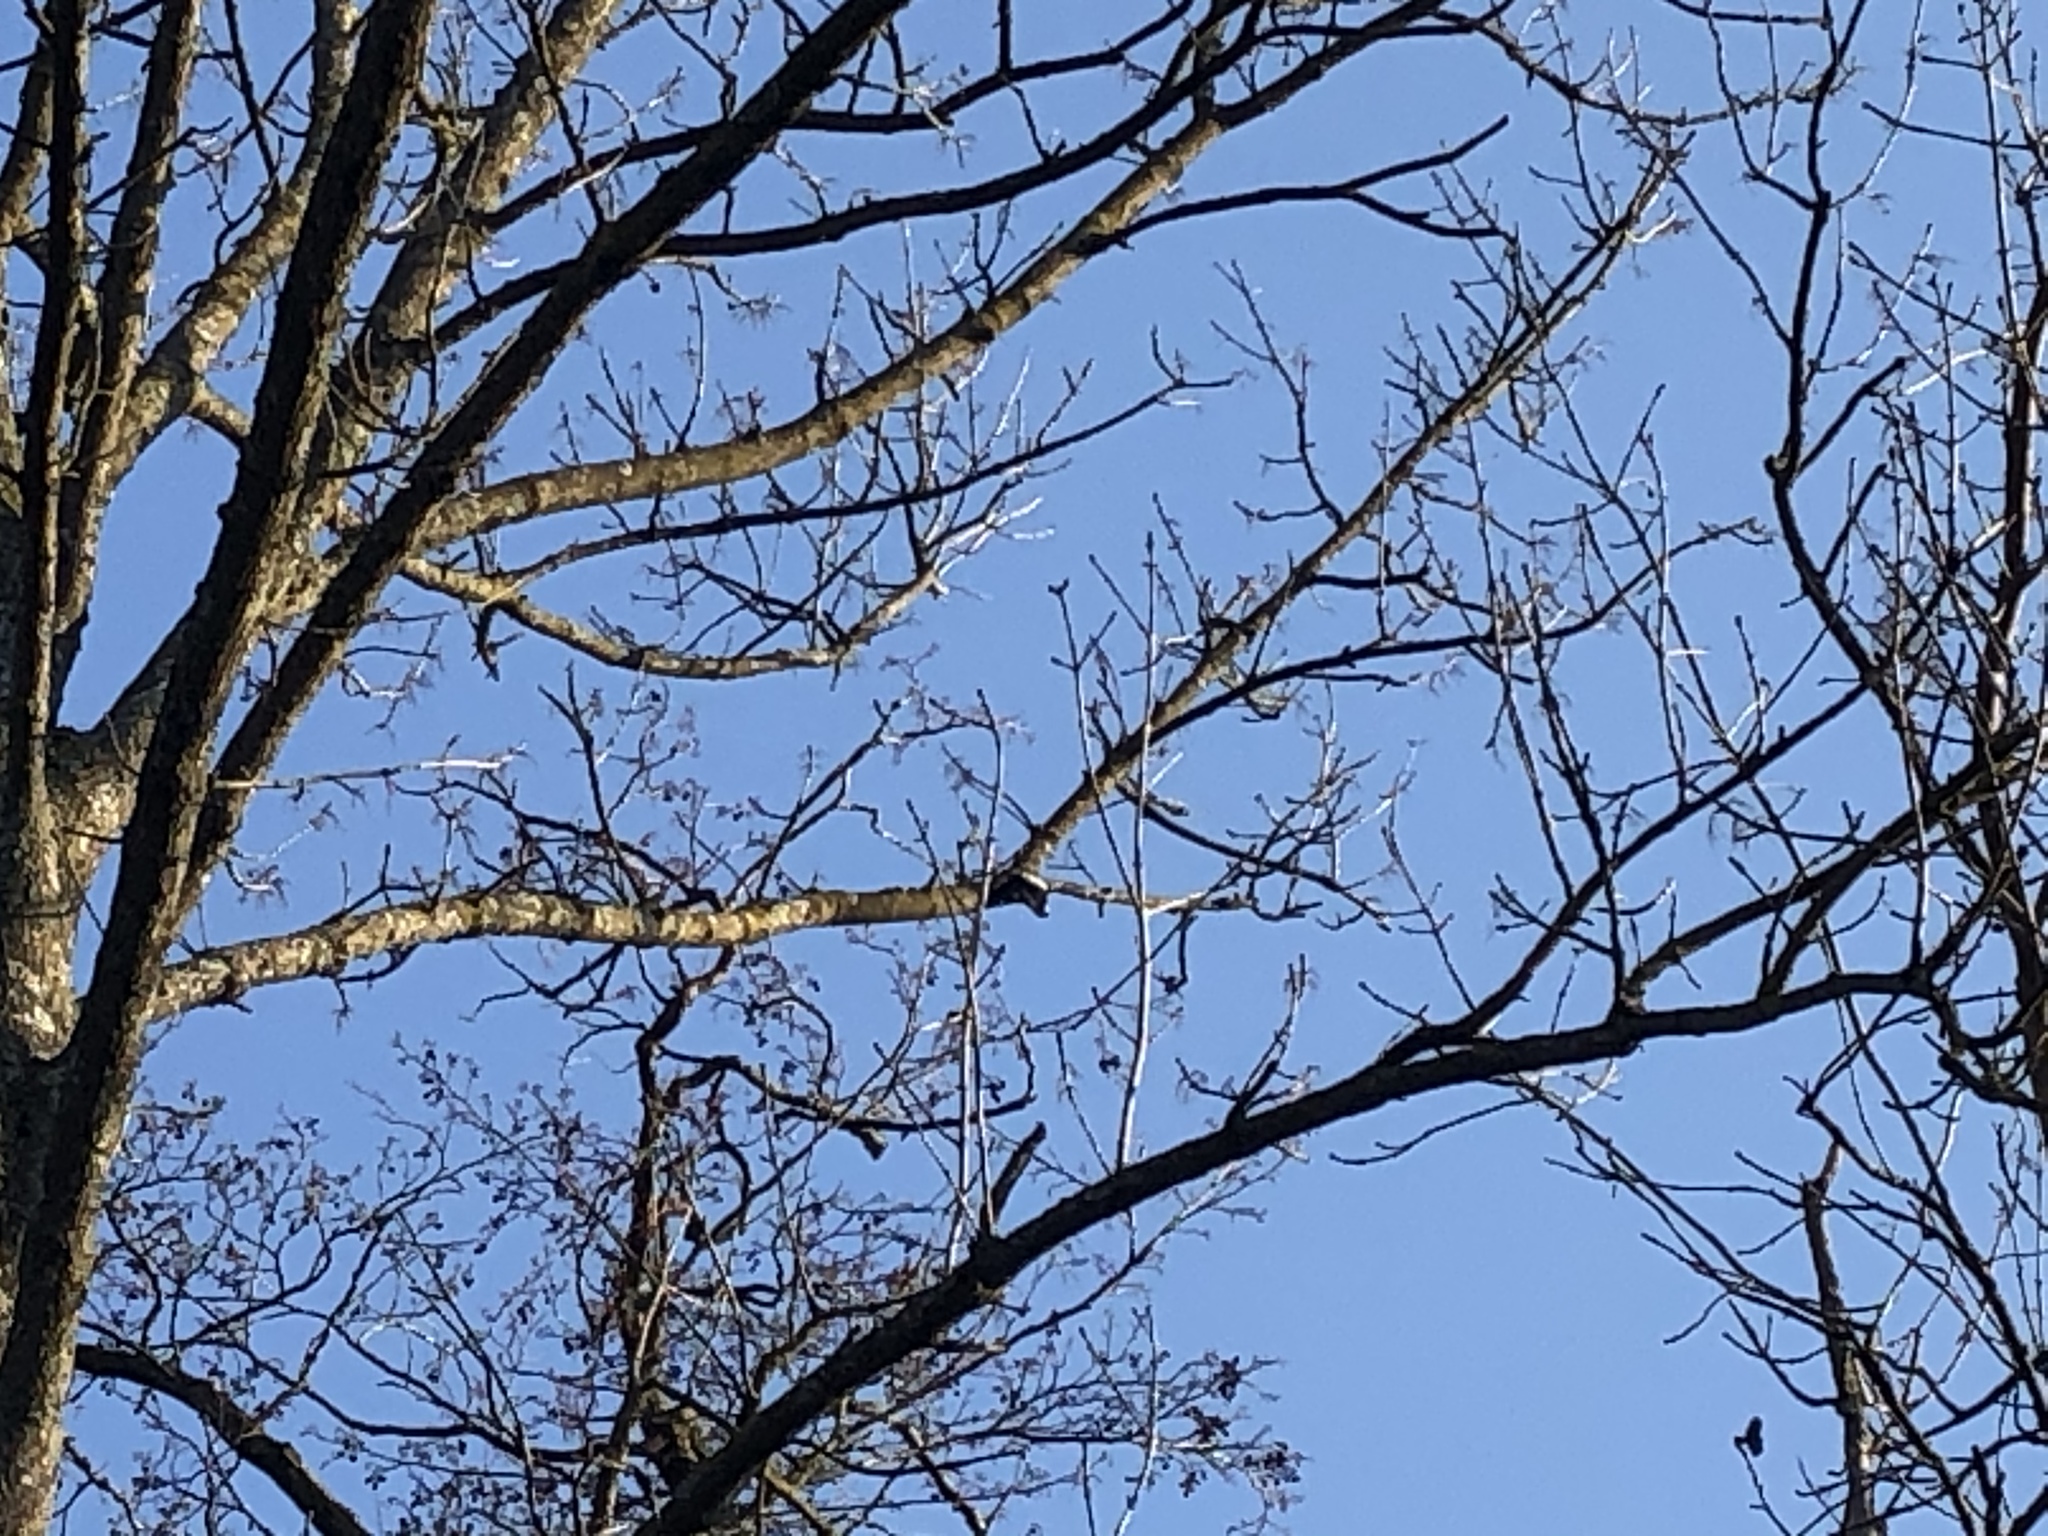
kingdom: Animalia
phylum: Chordata
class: Aves
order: Piciformes
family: Picidae
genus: Dendrocopos
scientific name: Dendrocopos major
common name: Great spotted woodpecker
